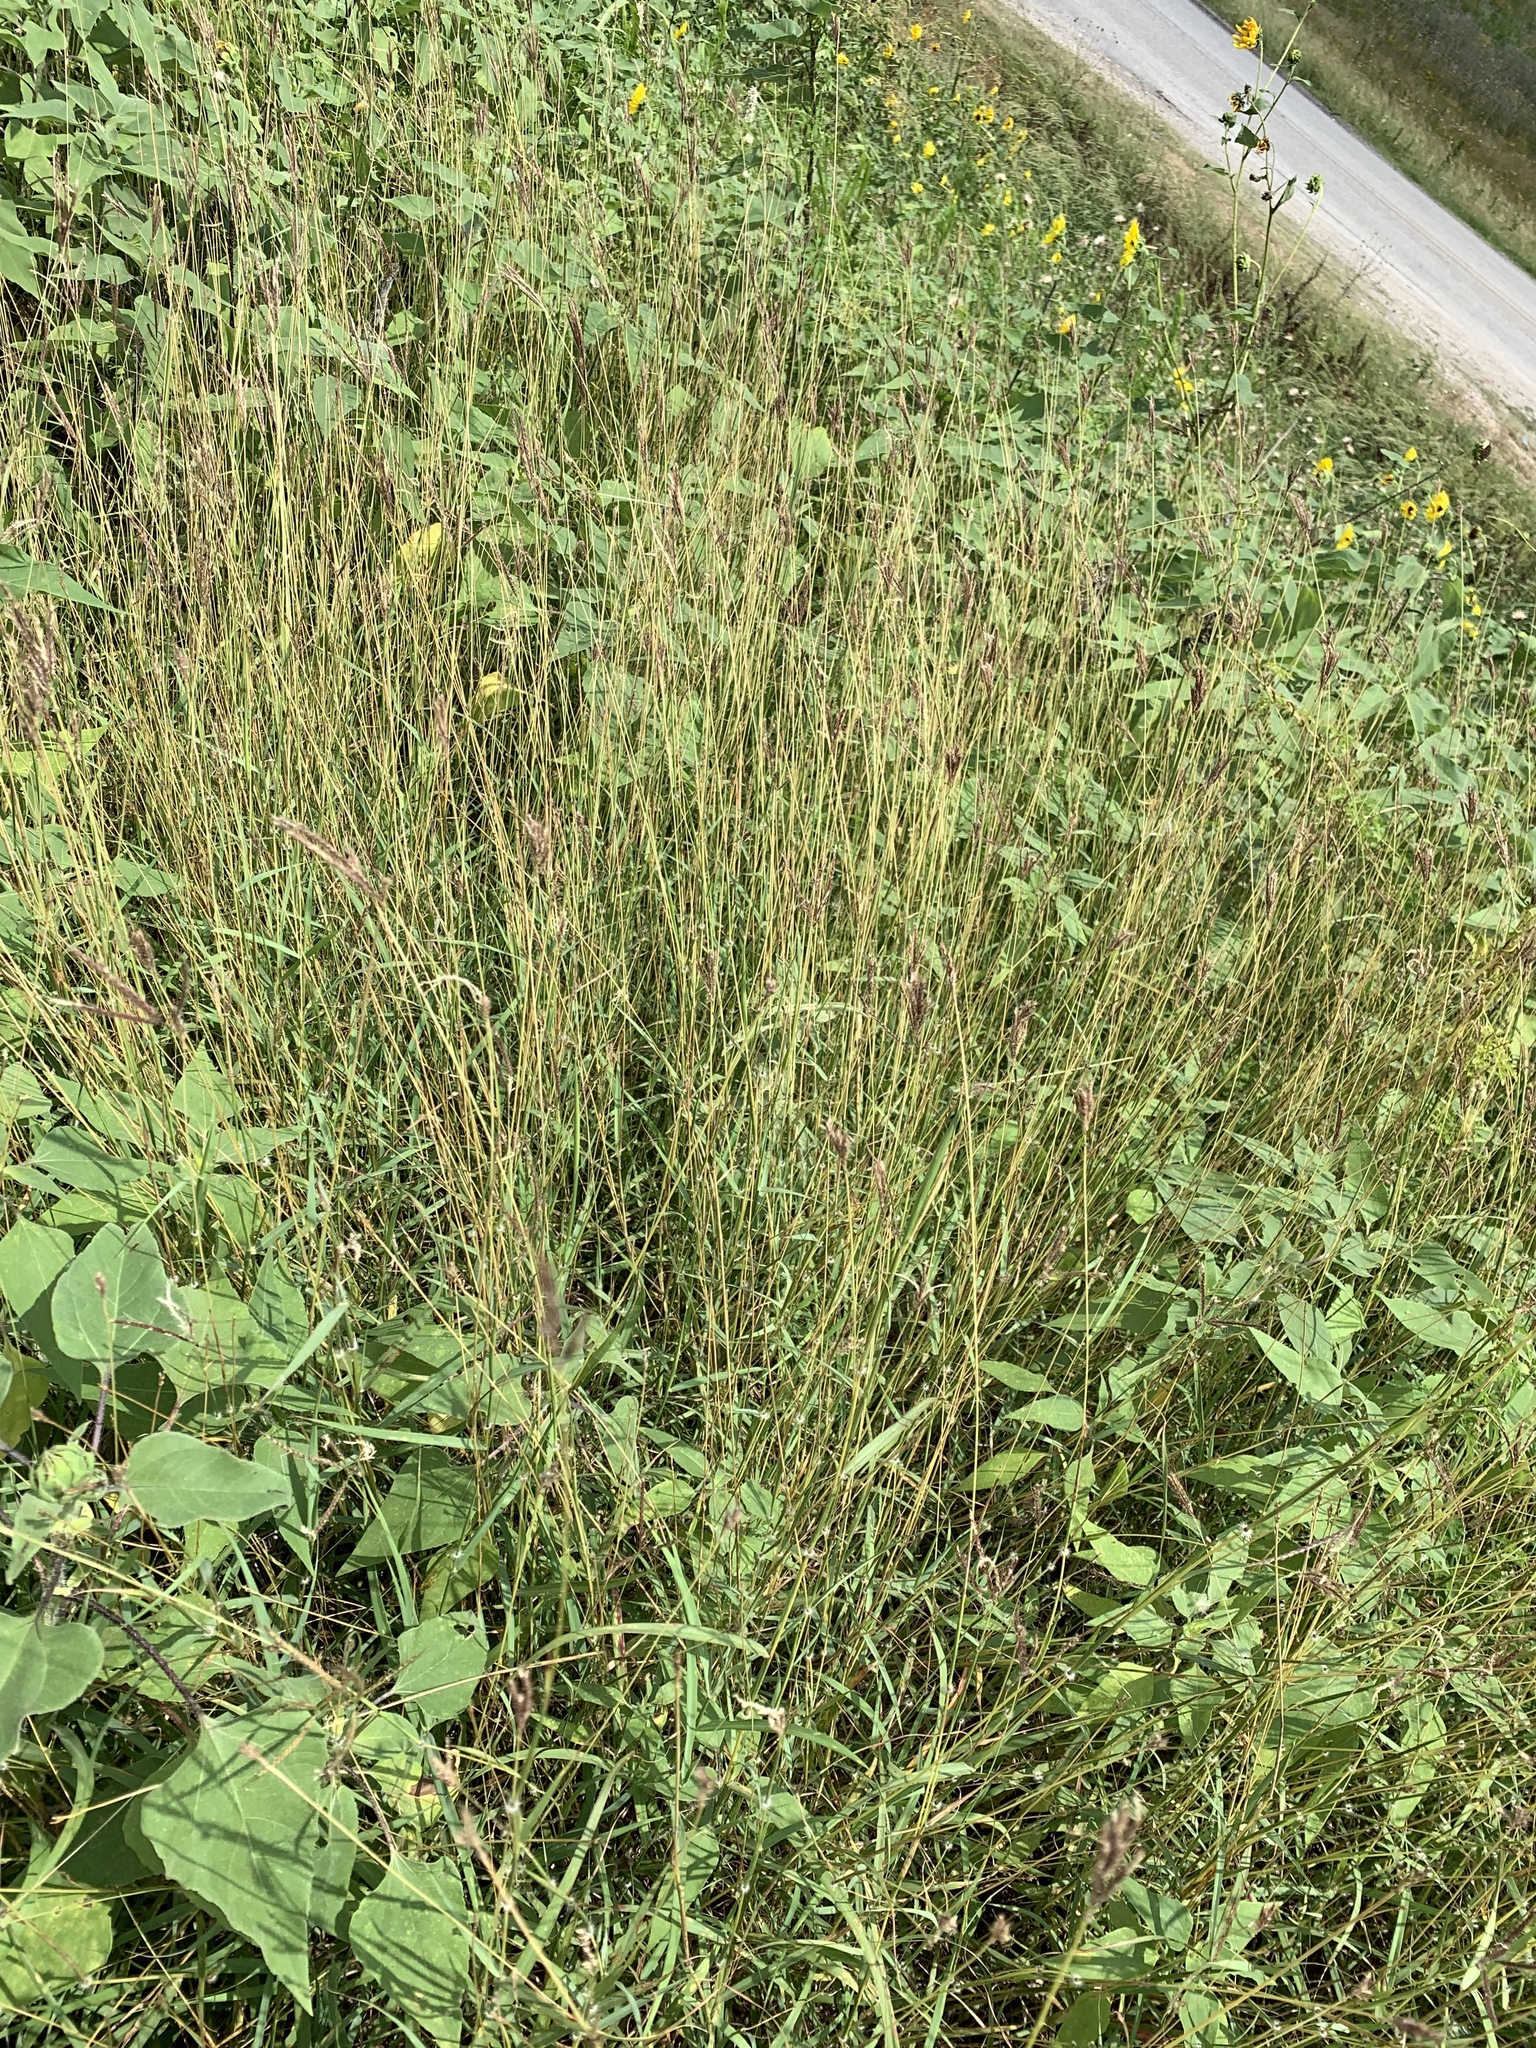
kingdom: Plantae
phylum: Tracheophyta
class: Liliopsida
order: Poales
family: Poaceae
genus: Dichanthium
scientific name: Dichanthium annulatum
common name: Kleberg's bluestem
